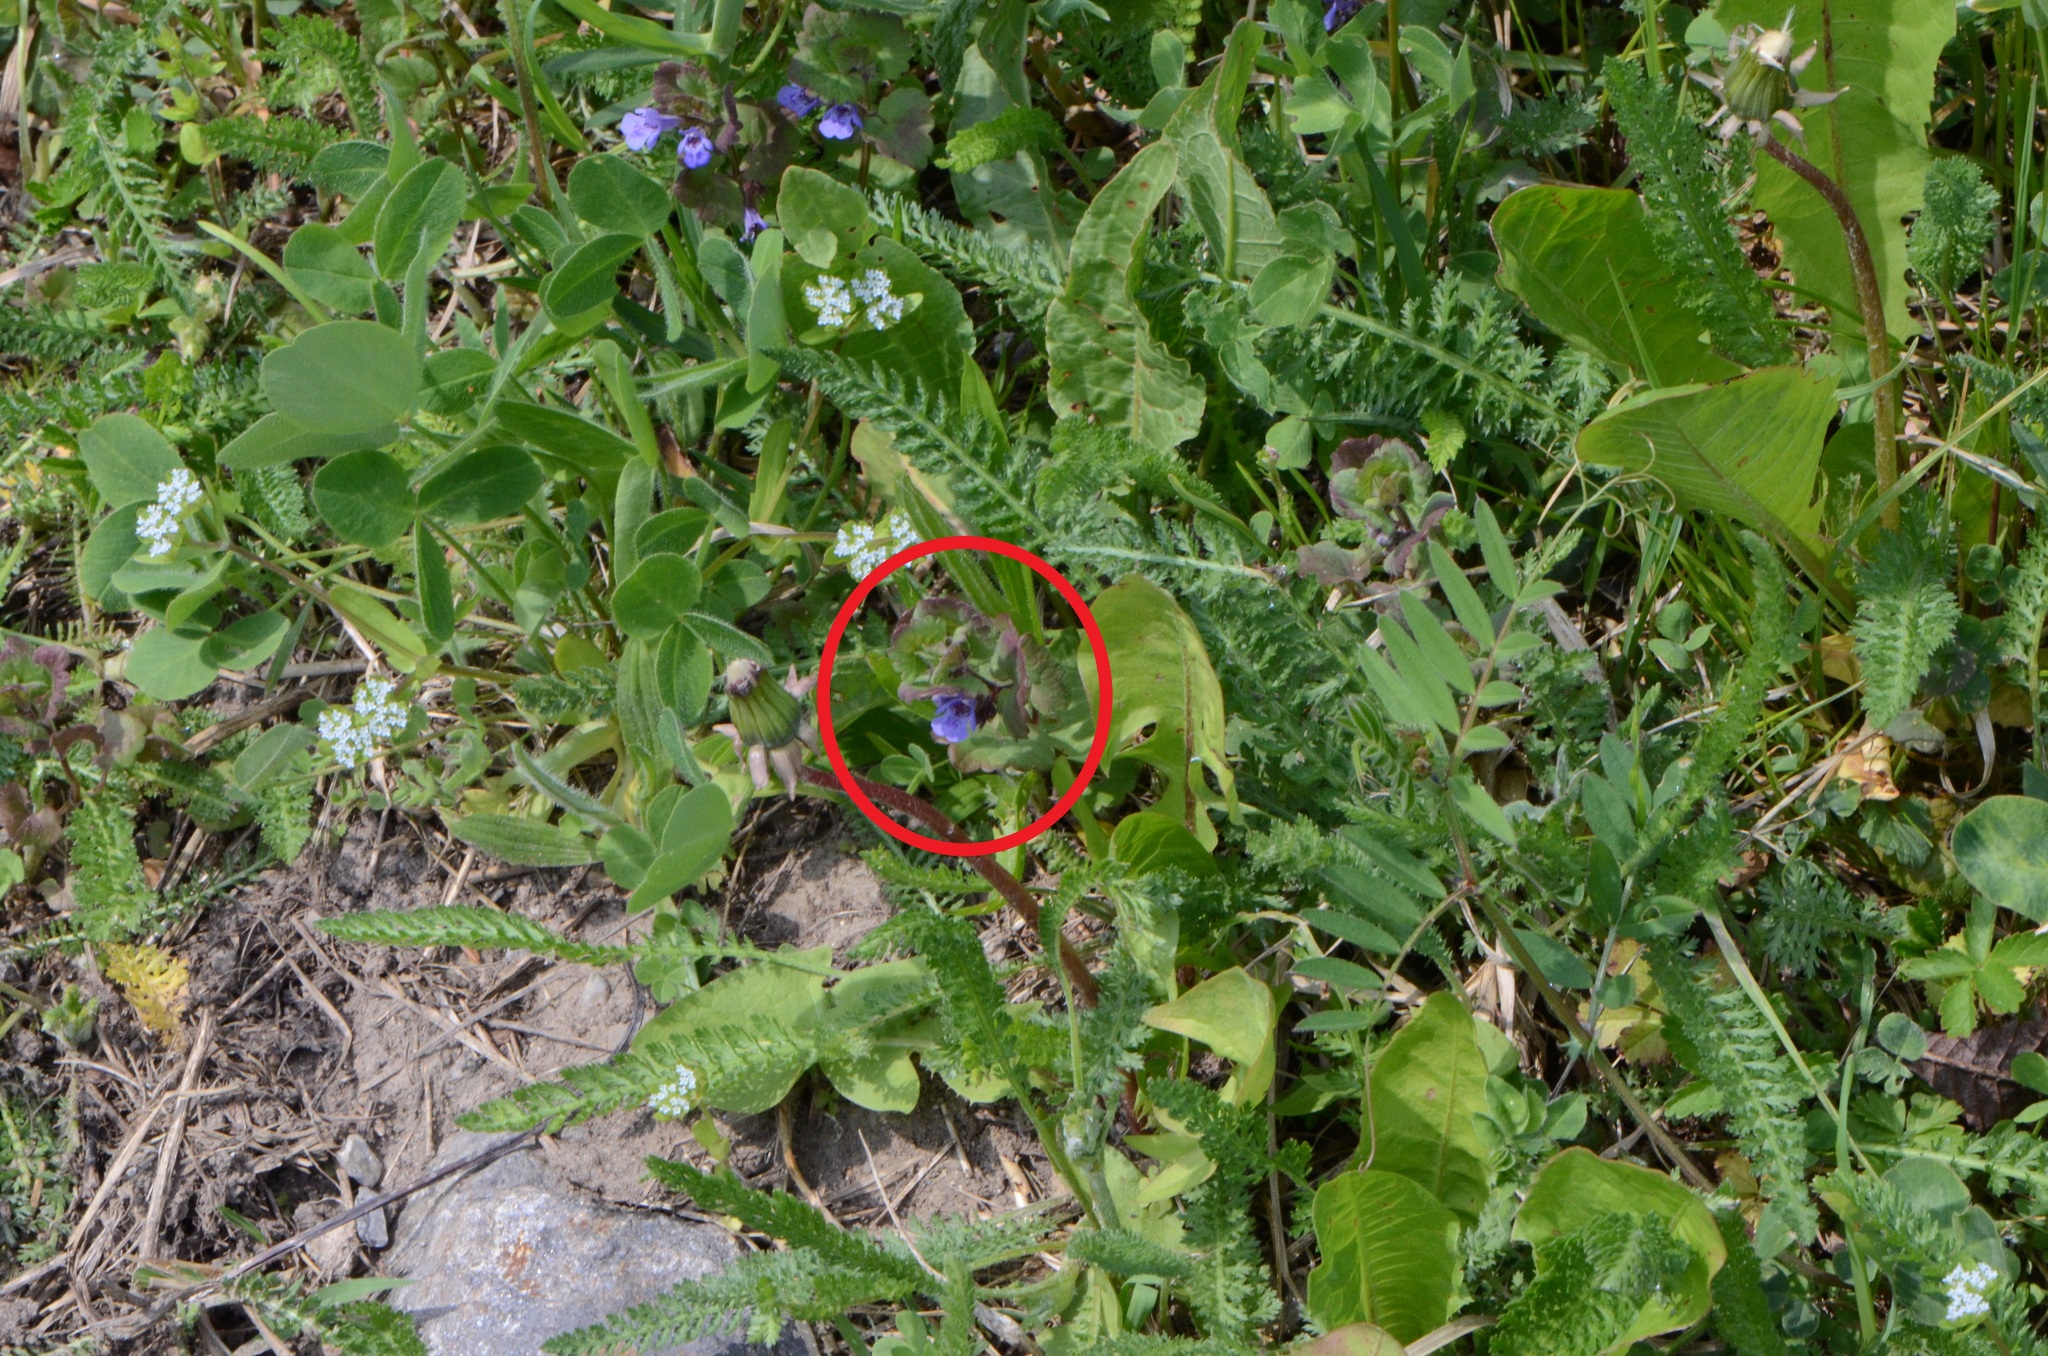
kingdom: Plantae
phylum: Tracheophyta
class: Magnoliopsida
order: Lamiales
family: Lamiaceae
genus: Glechoma
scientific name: Glechoma hederacea
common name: Ground ivy
